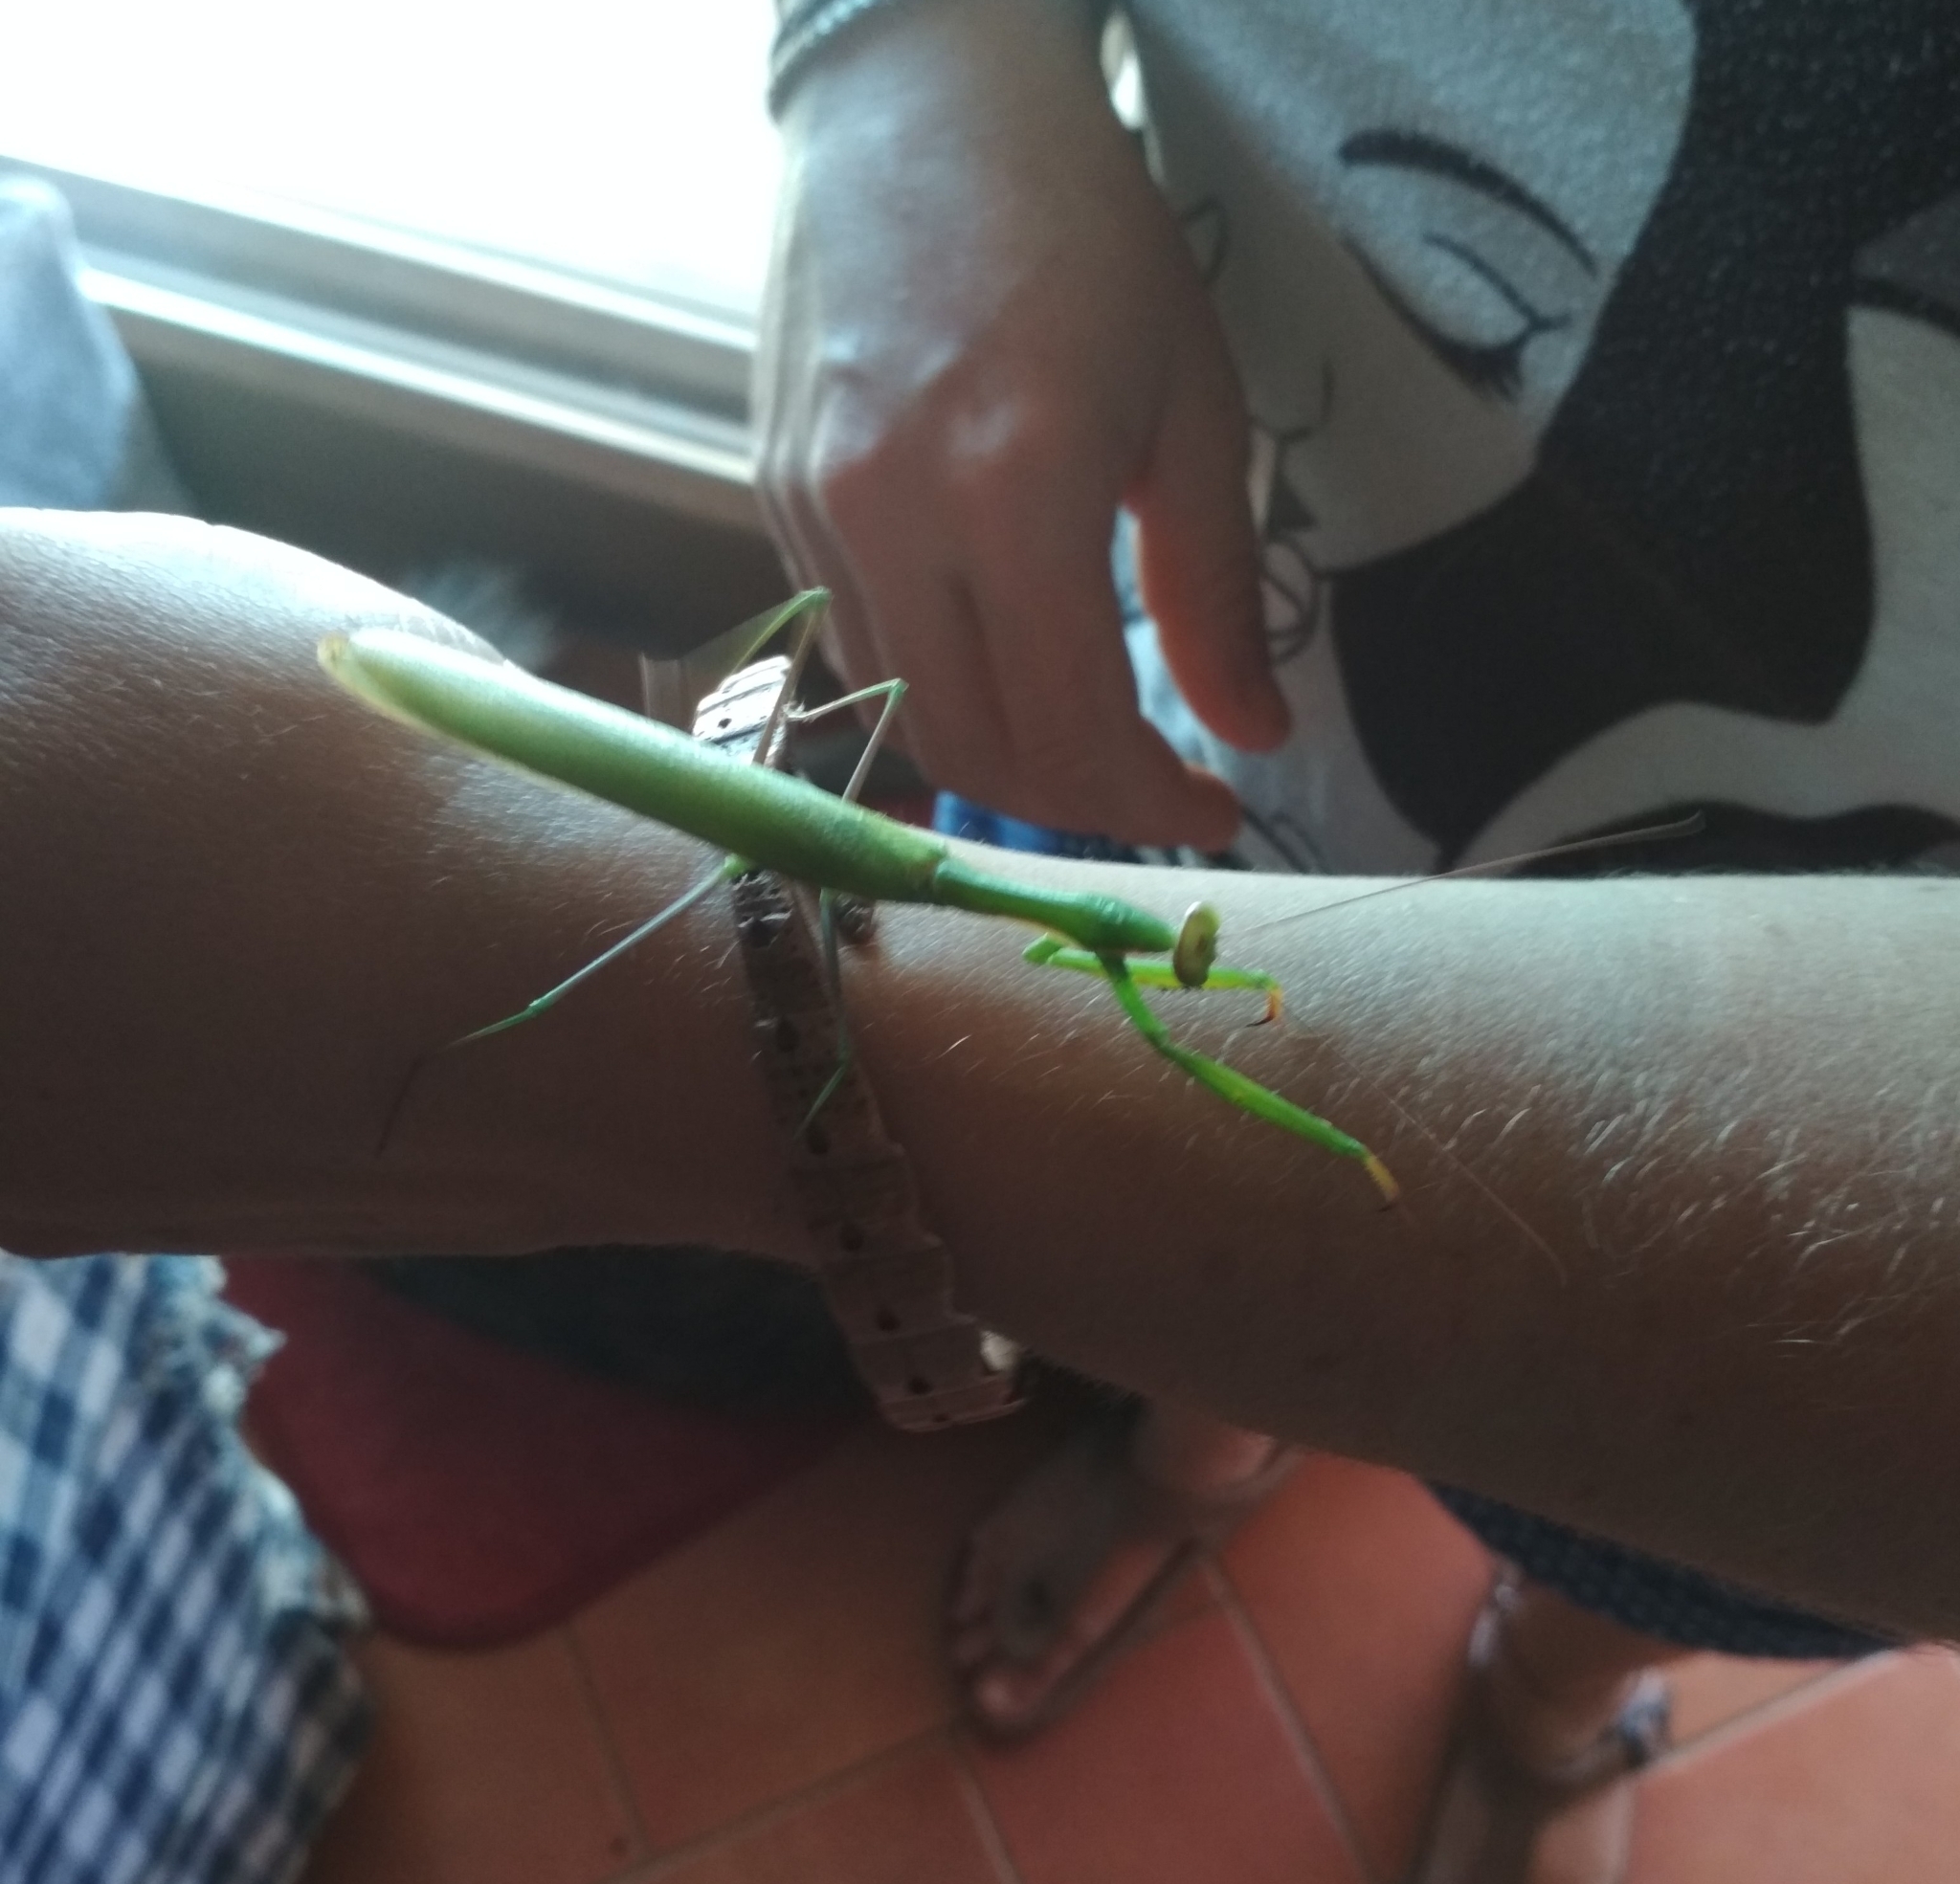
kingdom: Animalia
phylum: Arthropoda
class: Insecta
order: Mantodea
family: Mantidae
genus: Mantis
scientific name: Mantis religiosa
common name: Praying mantis
